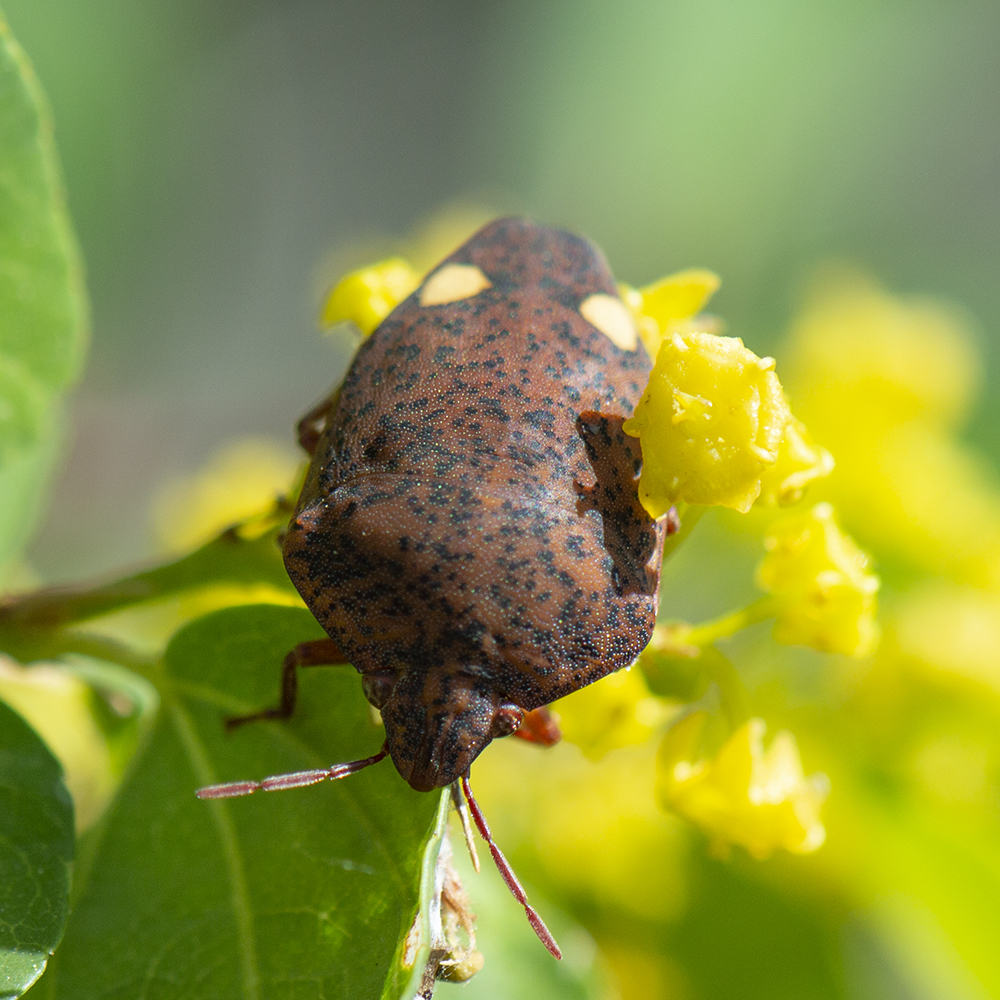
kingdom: Animalia
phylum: Arthropoda
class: Insecta
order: Hemiptera
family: Scutelleridae
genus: Solenosthedium
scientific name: Solenosthedium bilunatum
